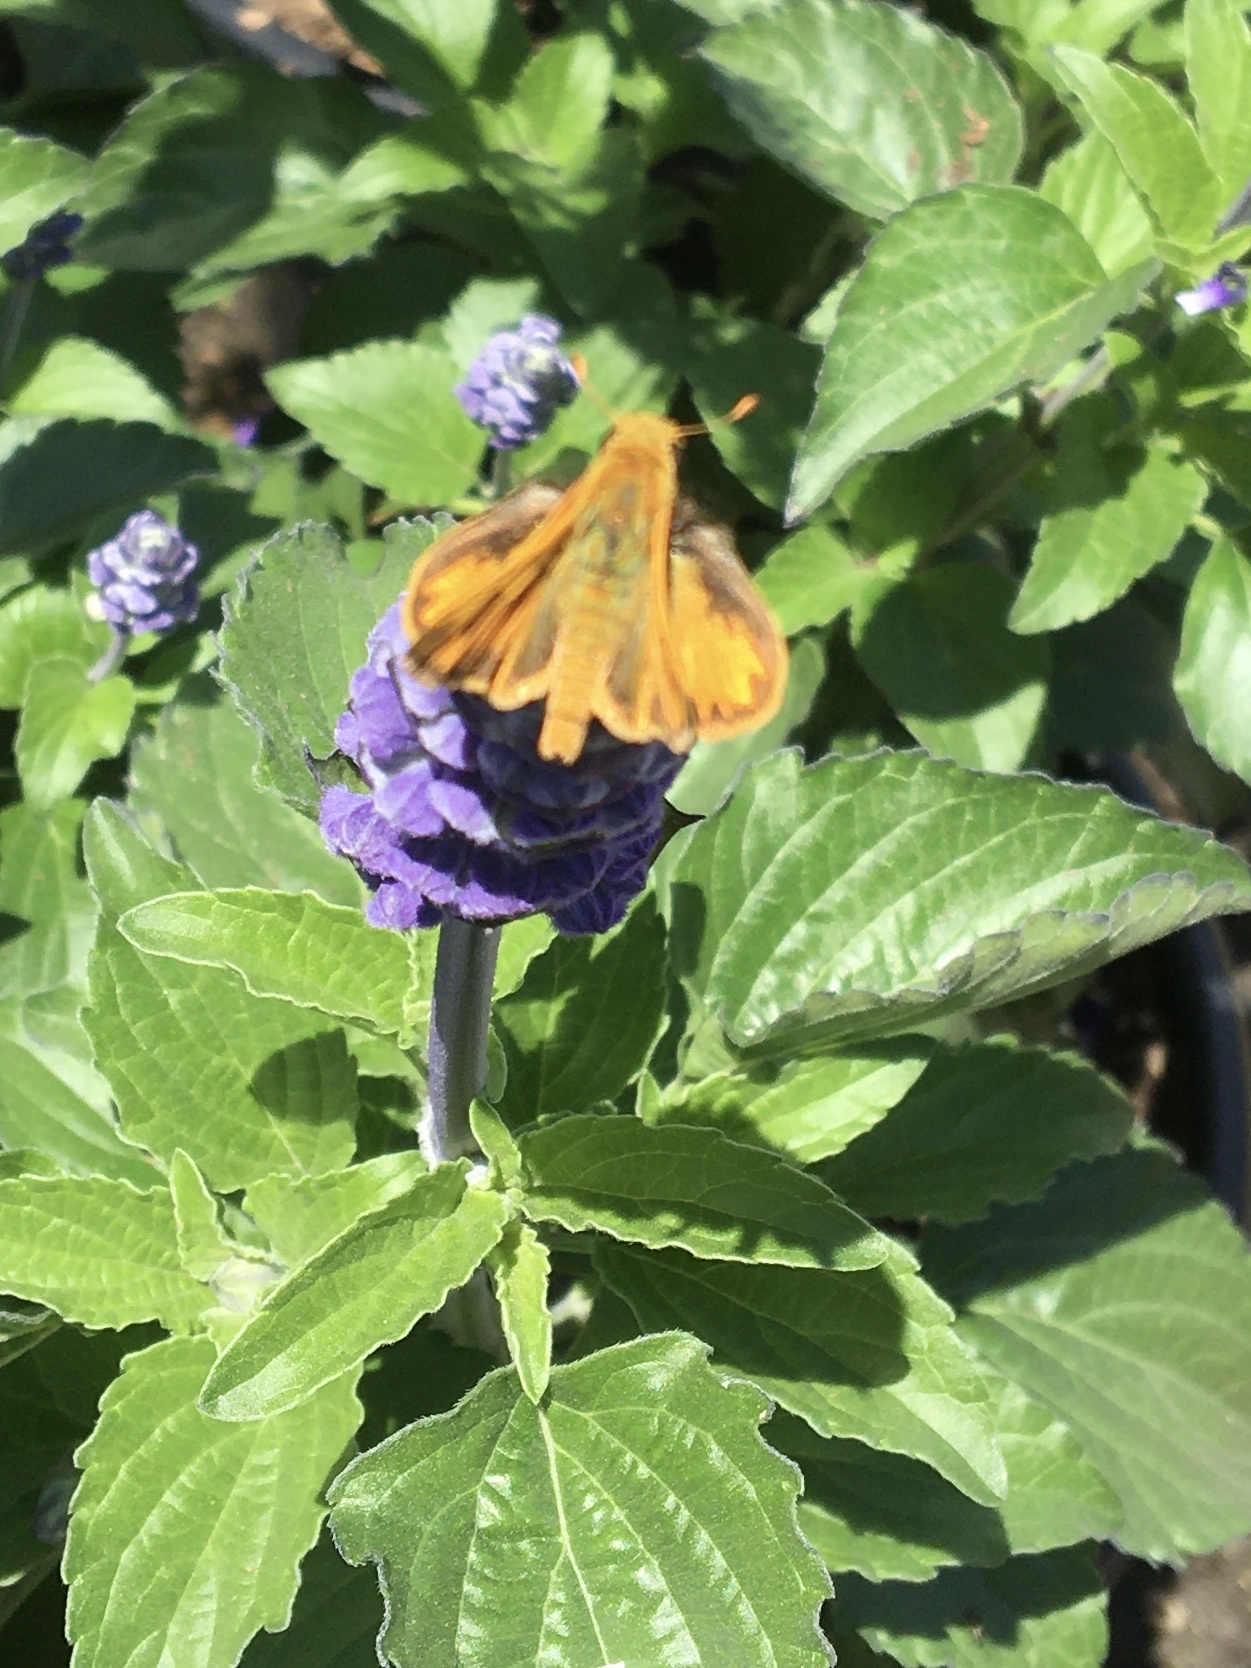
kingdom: Animalia
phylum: Arthropoda
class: Insecta
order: Lepidoptera
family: Hesperiidae
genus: Hylephila
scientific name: Hylephila phyleus
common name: Fiery skipper
